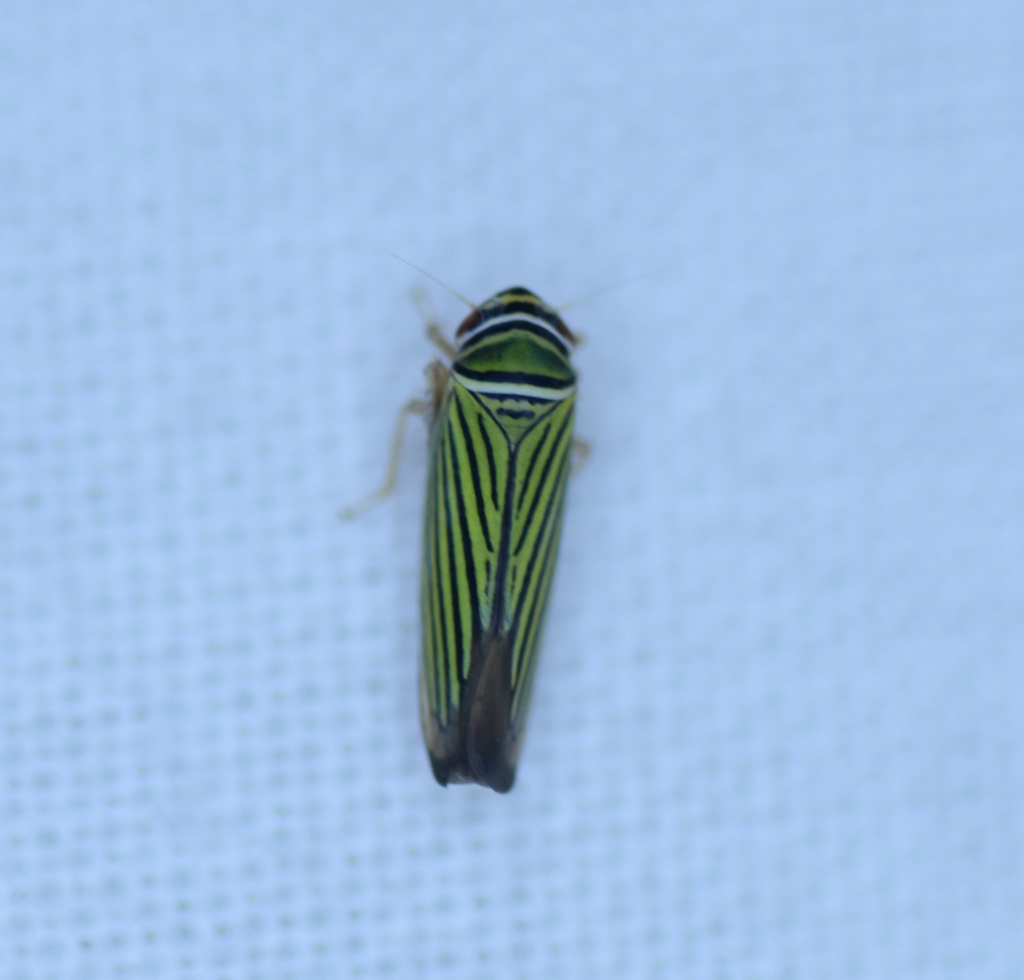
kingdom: Animalia
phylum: Arthropoda
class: Insecta
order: Hemiptera
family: Cicadellidae
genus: Tylozygus
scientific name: Tylozygus bifidus
